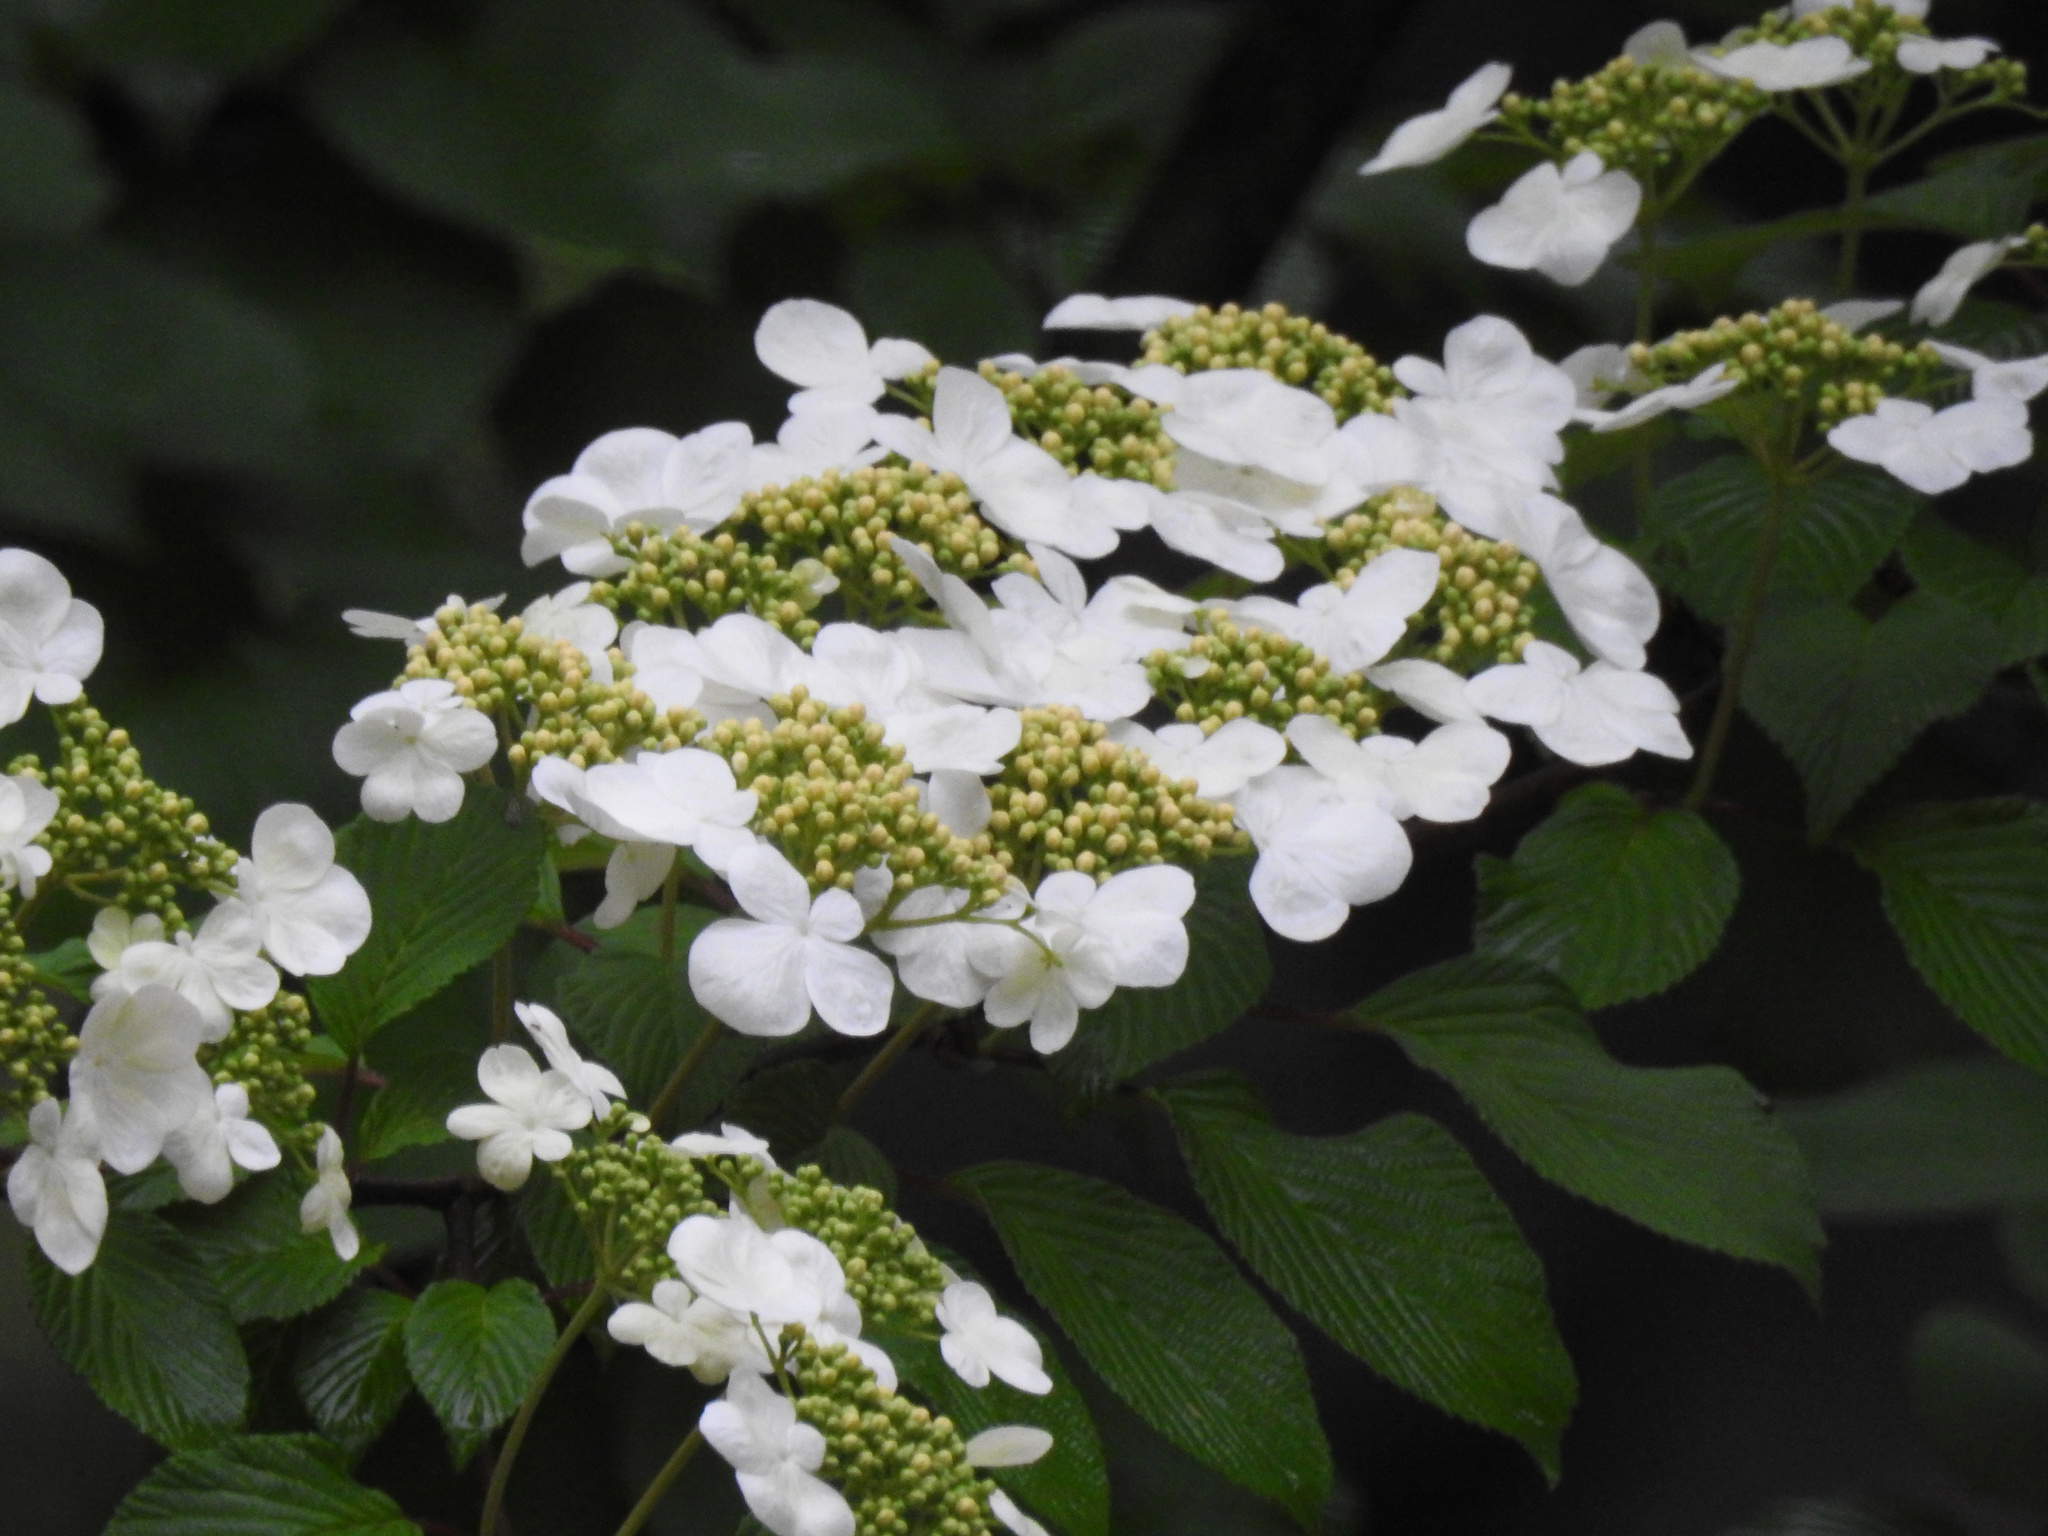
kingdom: Plantae
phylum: Tracheophyta
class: Magnoliopsida
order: Dipsacales
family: Viburnaceae
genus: Viburnum
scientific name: Viburnum plicatum
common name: Japanese snowball
